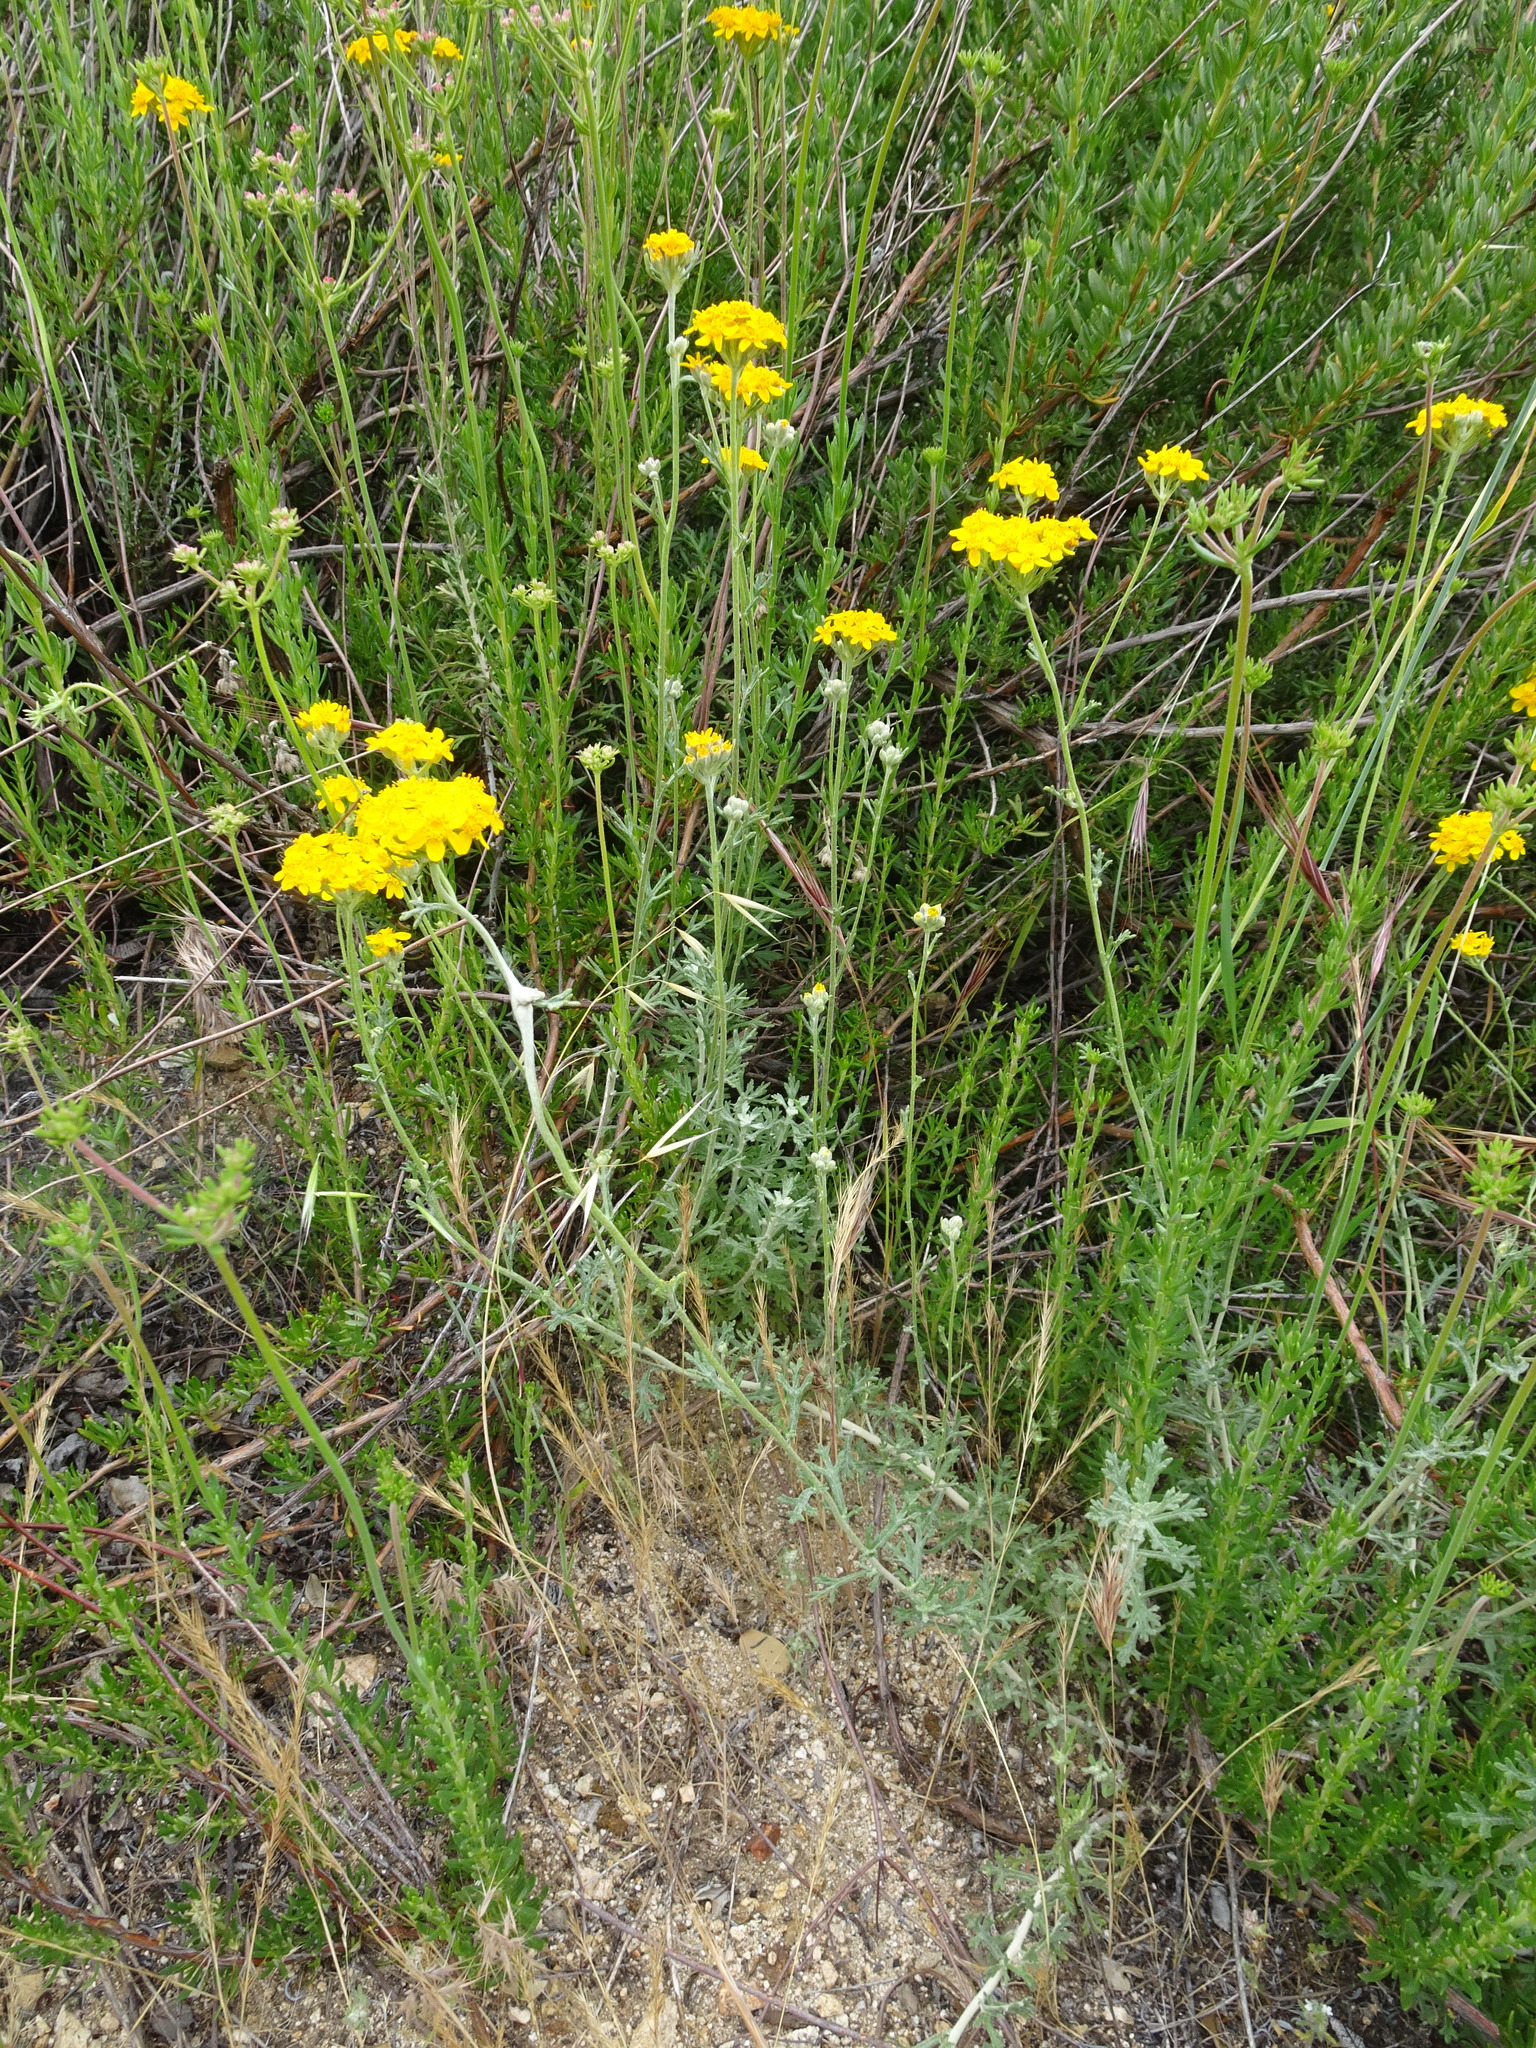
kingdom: Plantae
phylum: Tracheophyta
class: Magnoliopsida
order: Asterales
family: Asteraceae
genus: Eriophyllum
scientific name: Eriophyllum confertiflorum
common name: Golden-yarrow
